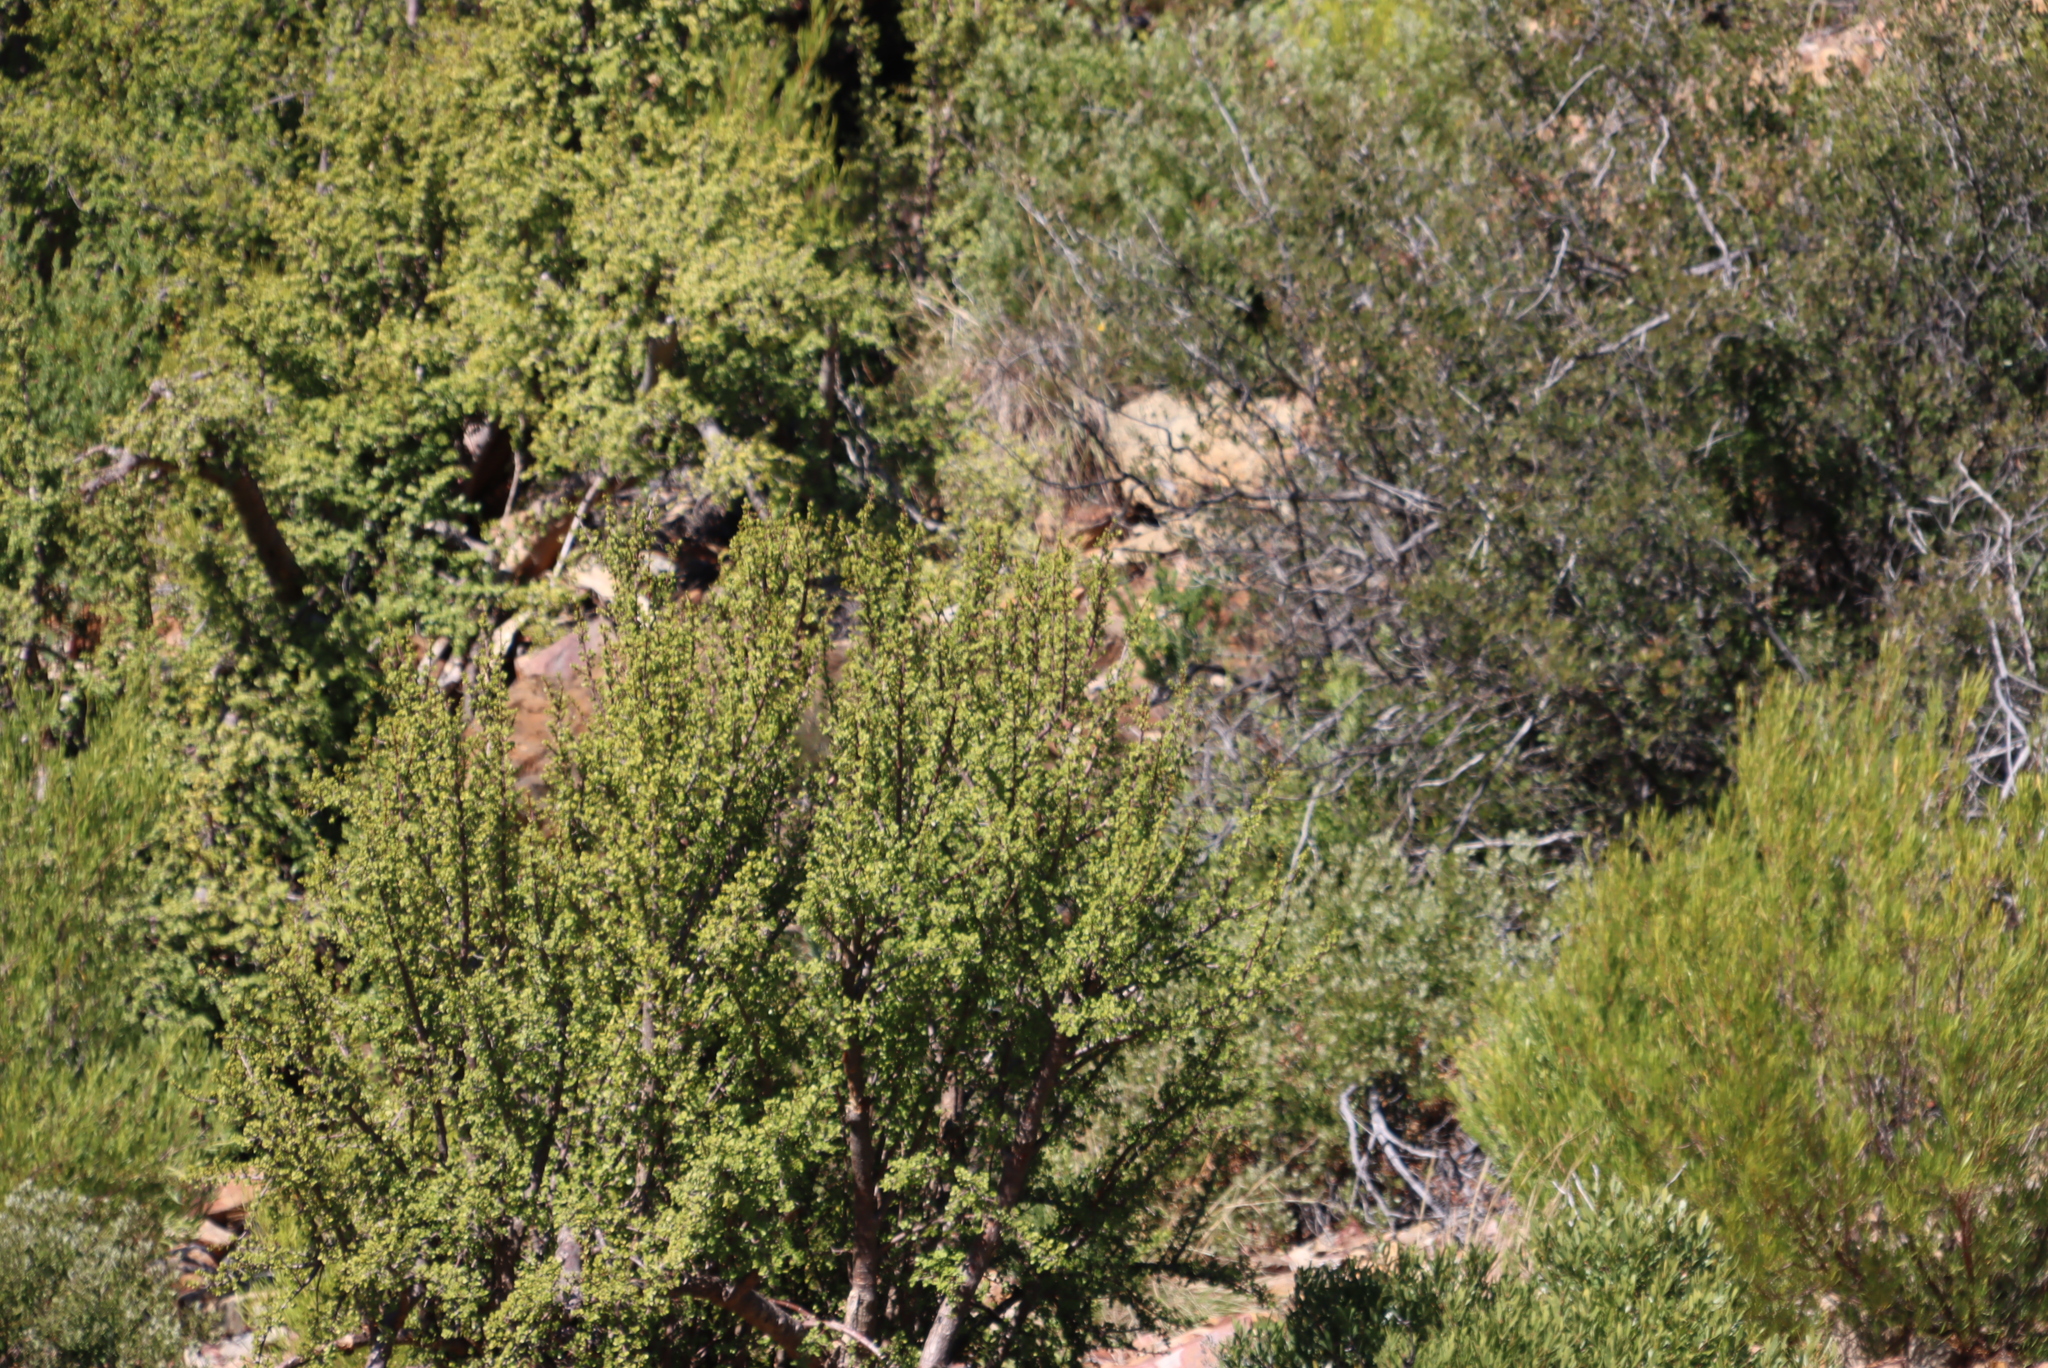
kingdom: Plantae
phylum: Tracheophyta
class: Magnoliopsida
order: Caryophyllales
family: Didiereaceae
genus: Portulacaria
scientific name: Portulacaria afra
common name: Elephant-bush
